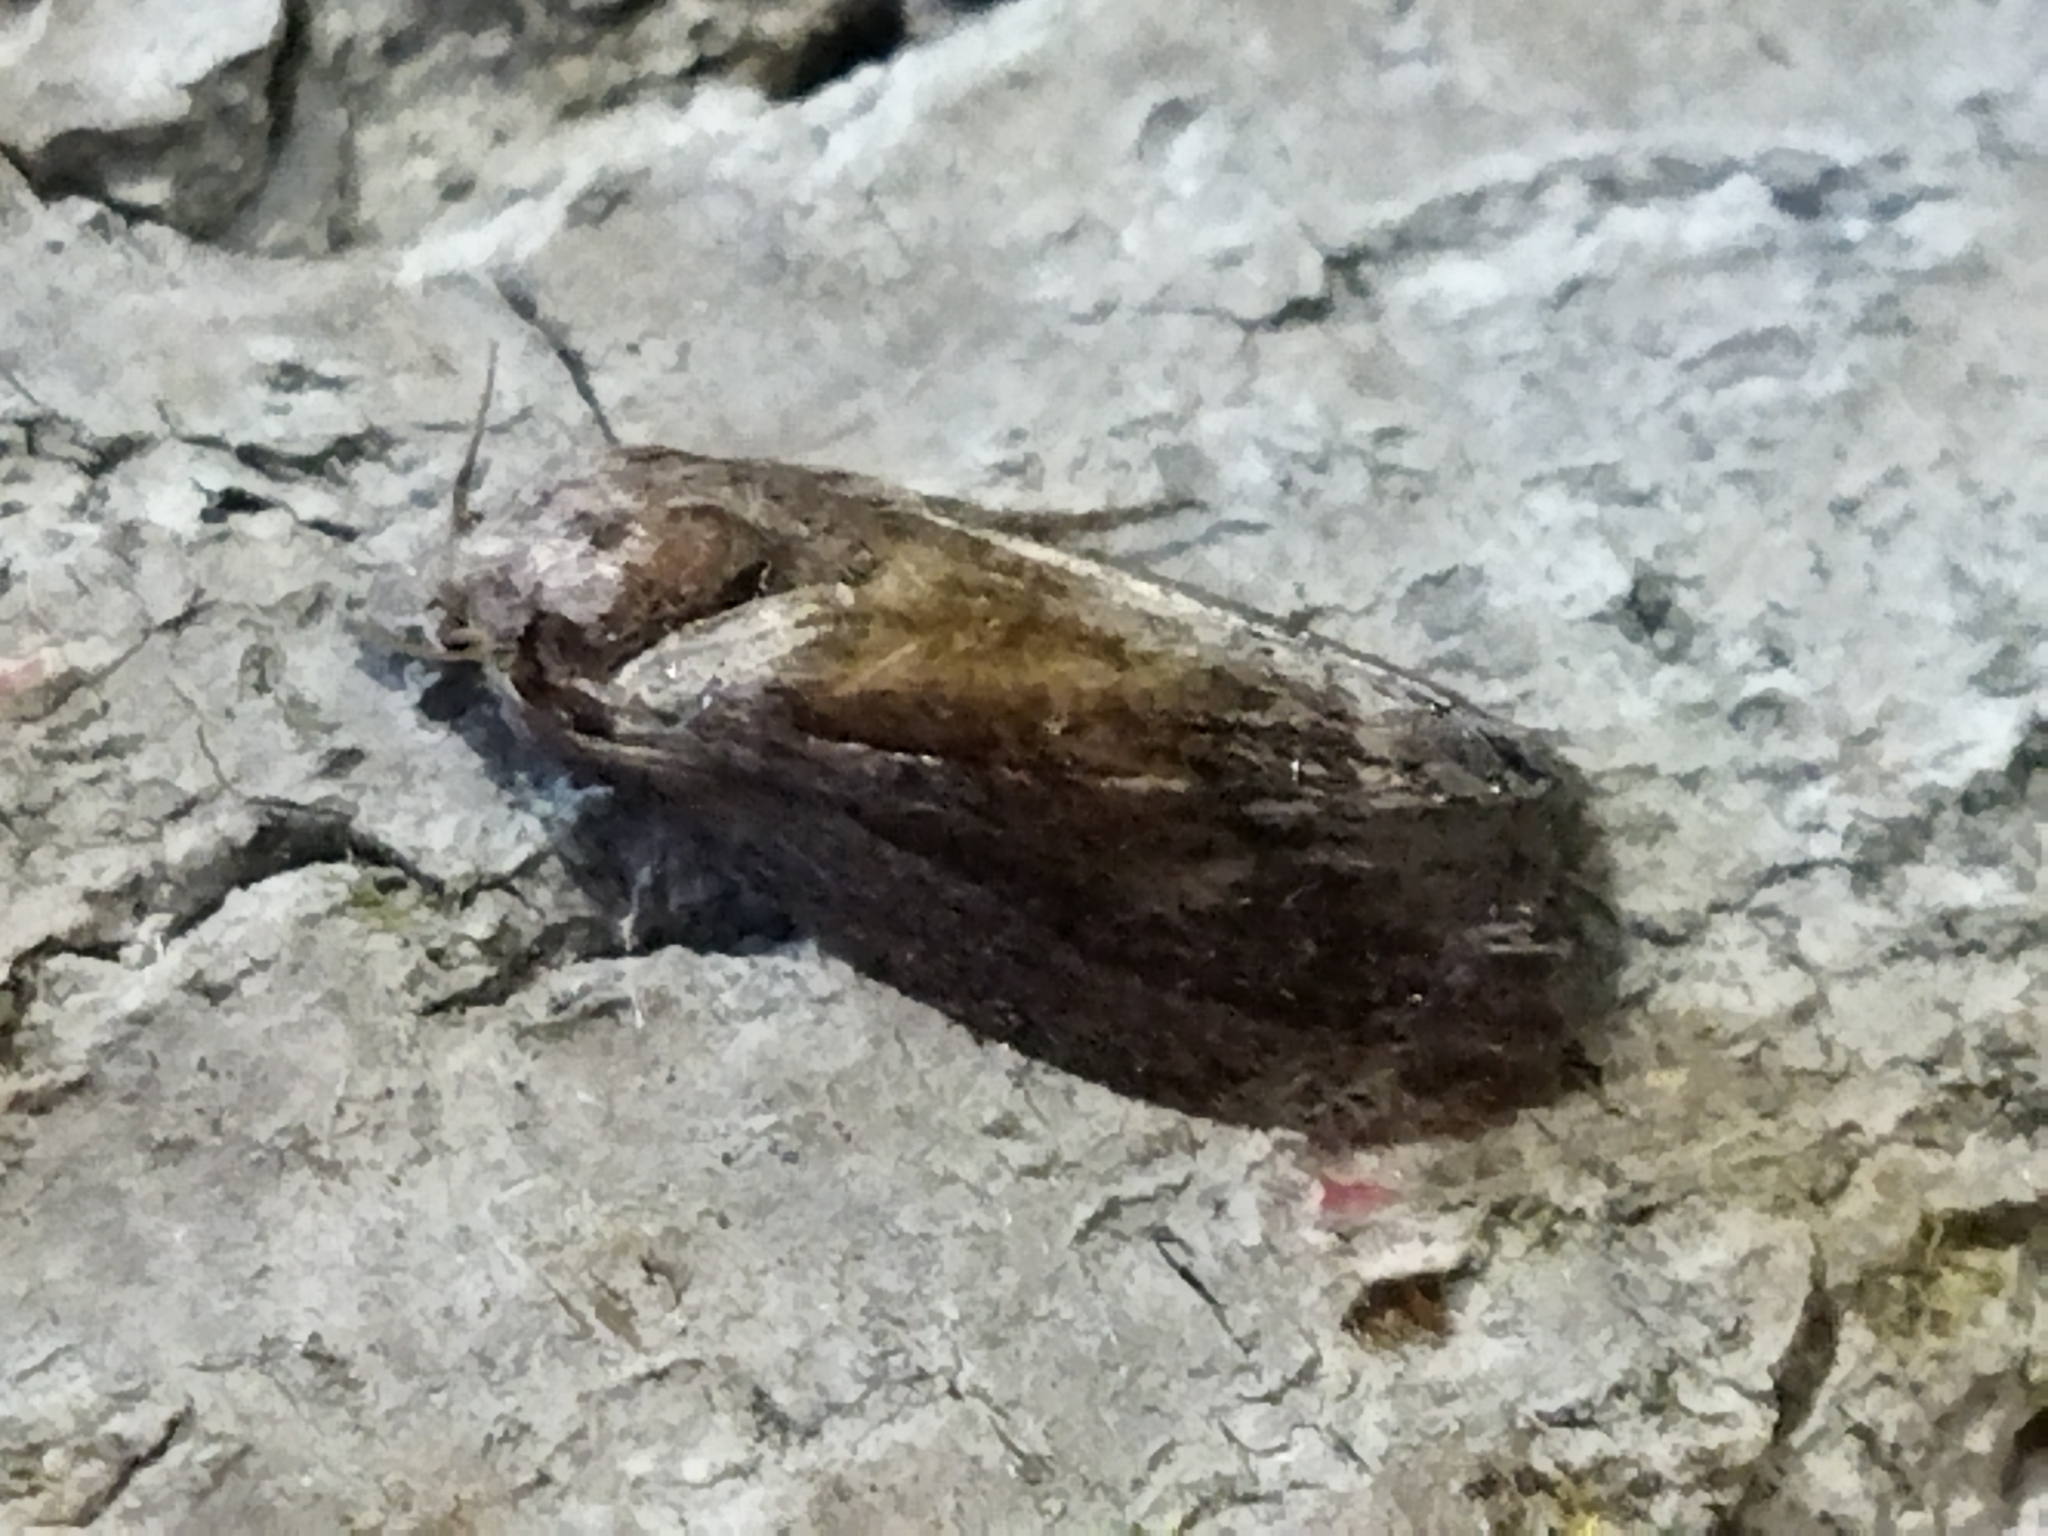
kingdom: Animalia
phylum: Arthropoda
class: Insecta
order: Lepidoptera
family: Pyralidae
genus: Galleria
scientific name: Galleria mellonella
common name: Greater wax moth
